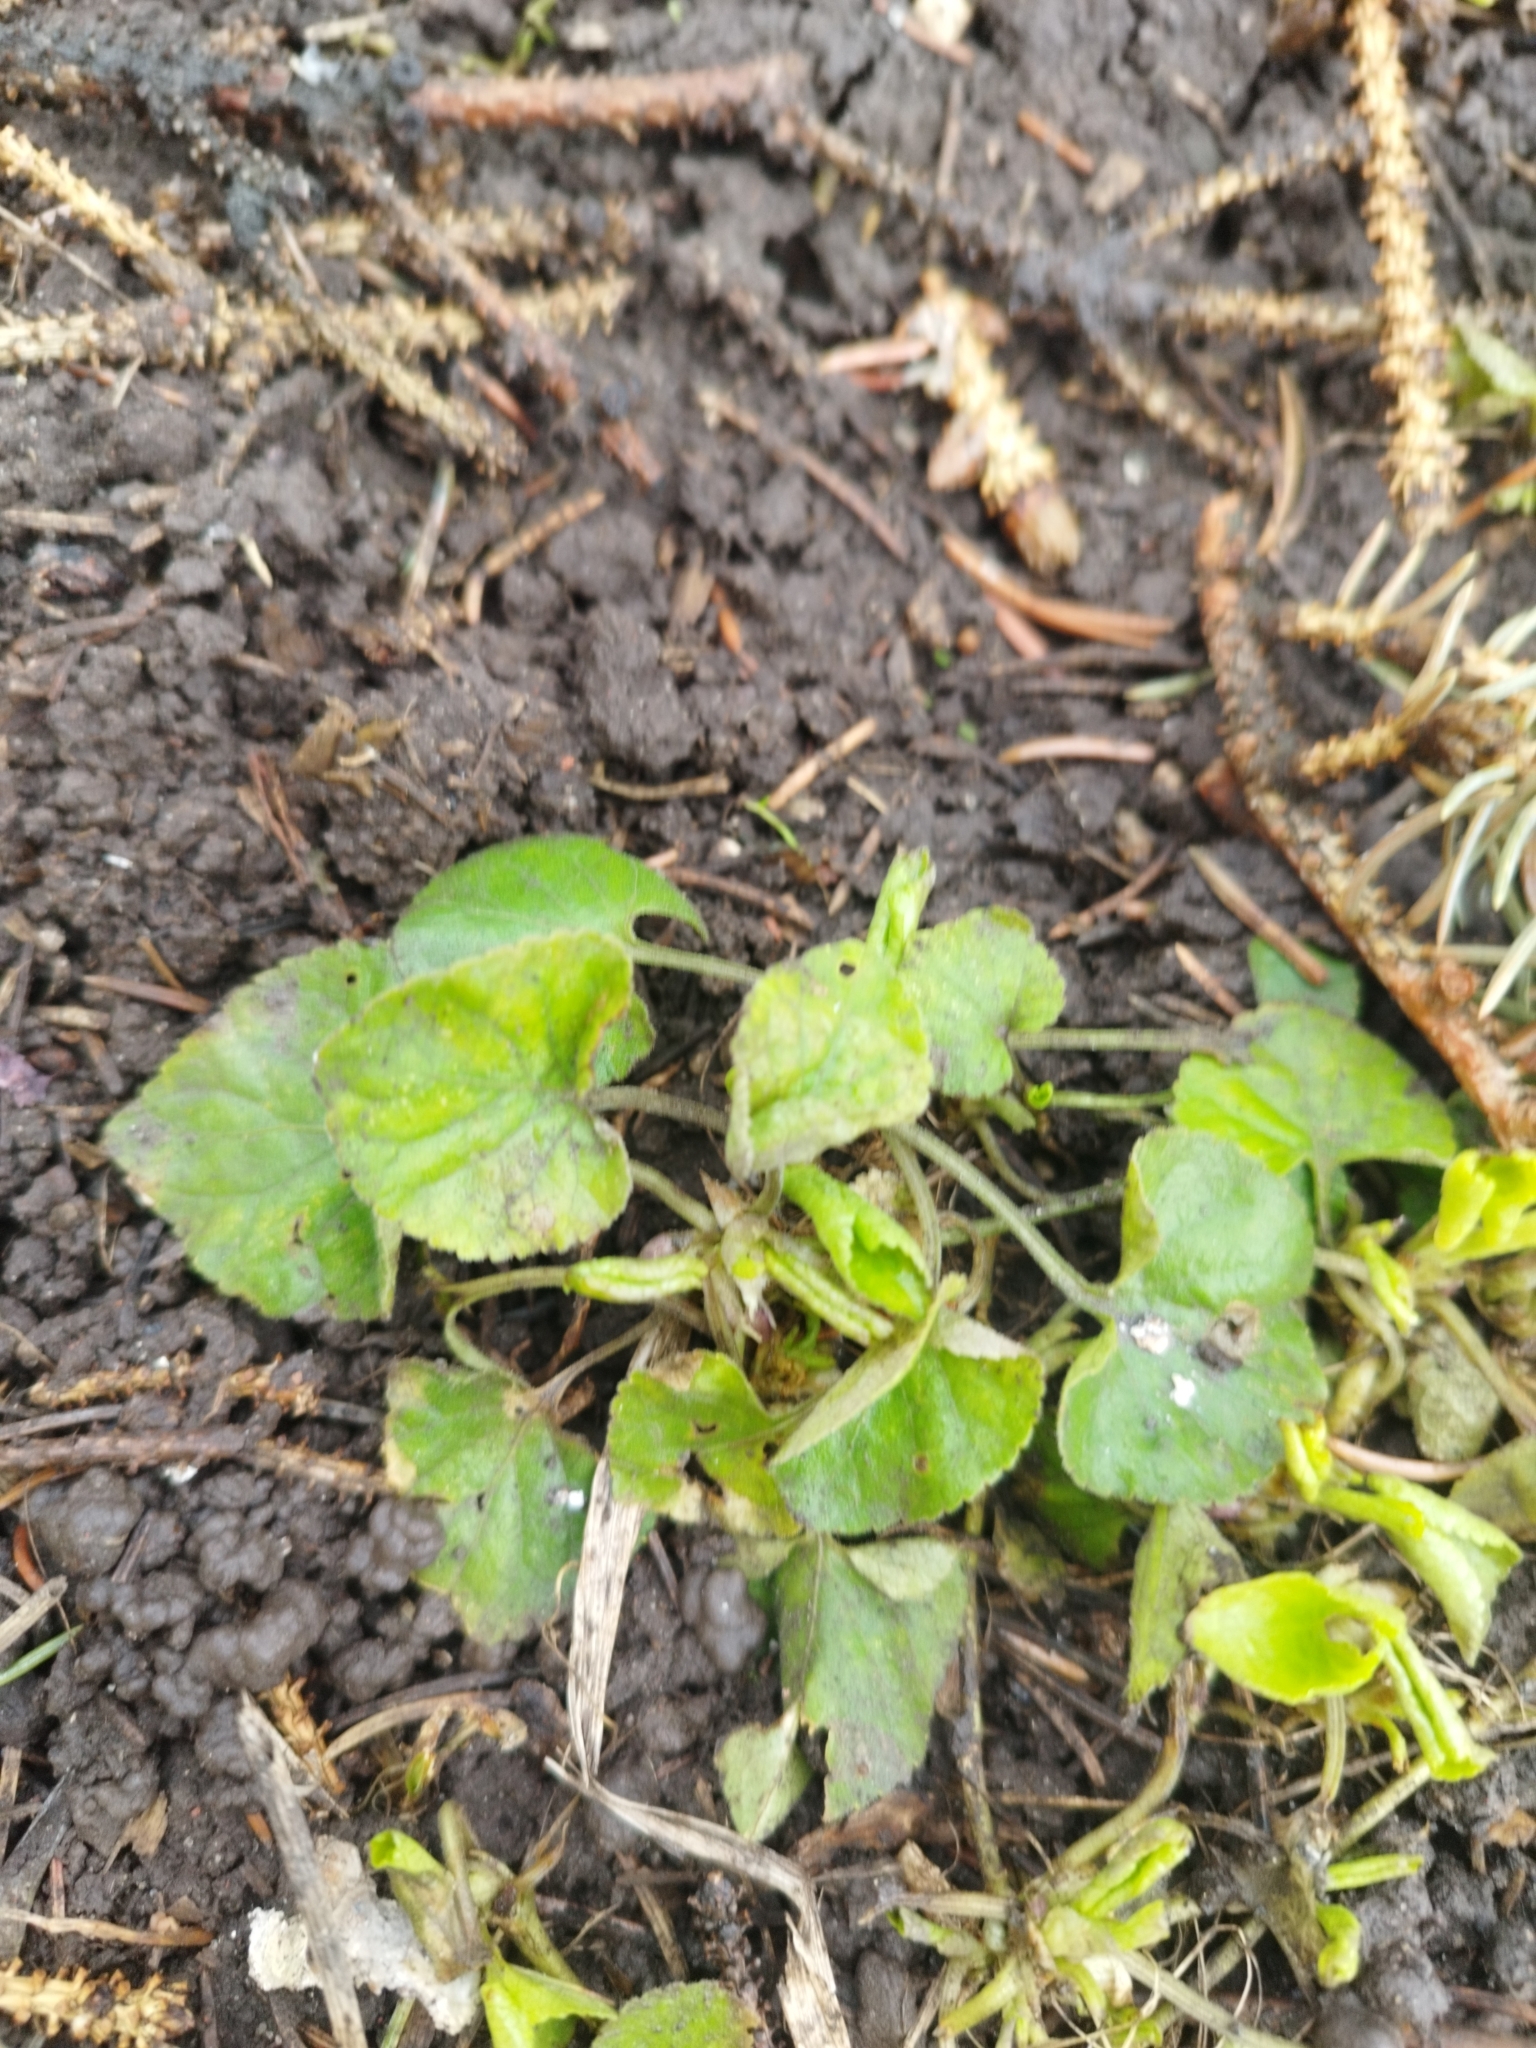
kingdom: Plantae
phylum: Tracheophyta
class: Magnoliopsida
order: Malpighiales
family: Violaceae
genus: Viola
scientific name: Viola odorata
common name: Sweet violet
